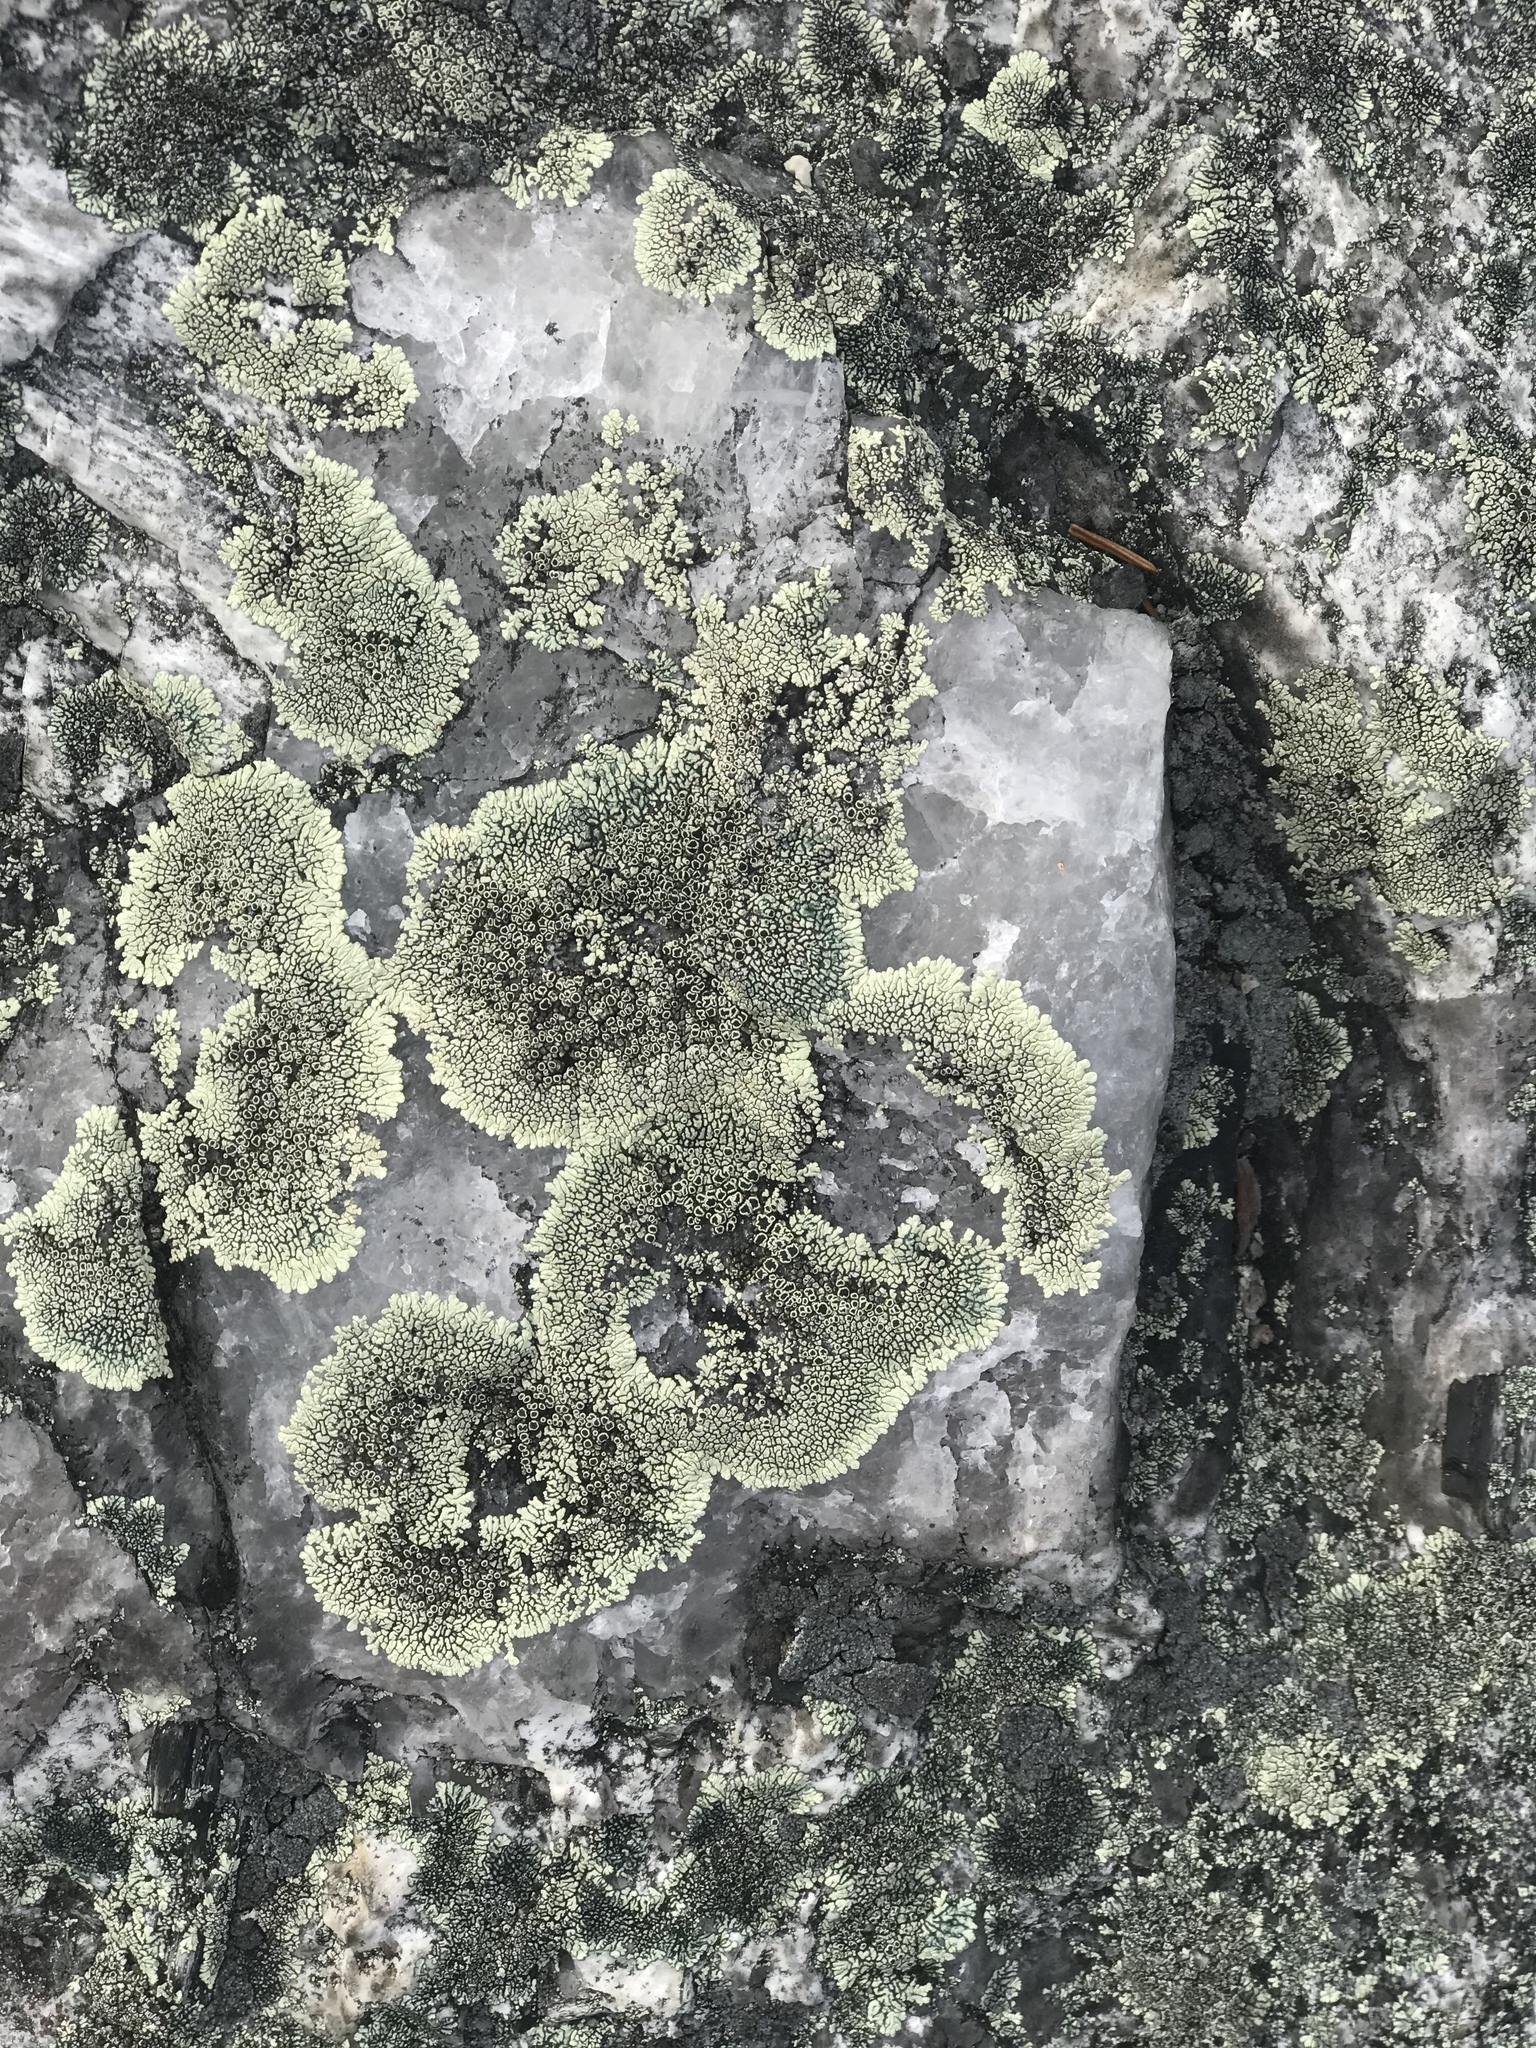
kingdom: Fungi
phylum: Ascomycota
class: Lecanoromycetes
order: Caliciales
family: Caliciaceae
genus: Dimelaena
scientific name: Dimelaena oreina
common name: Golden moonglow lichen
